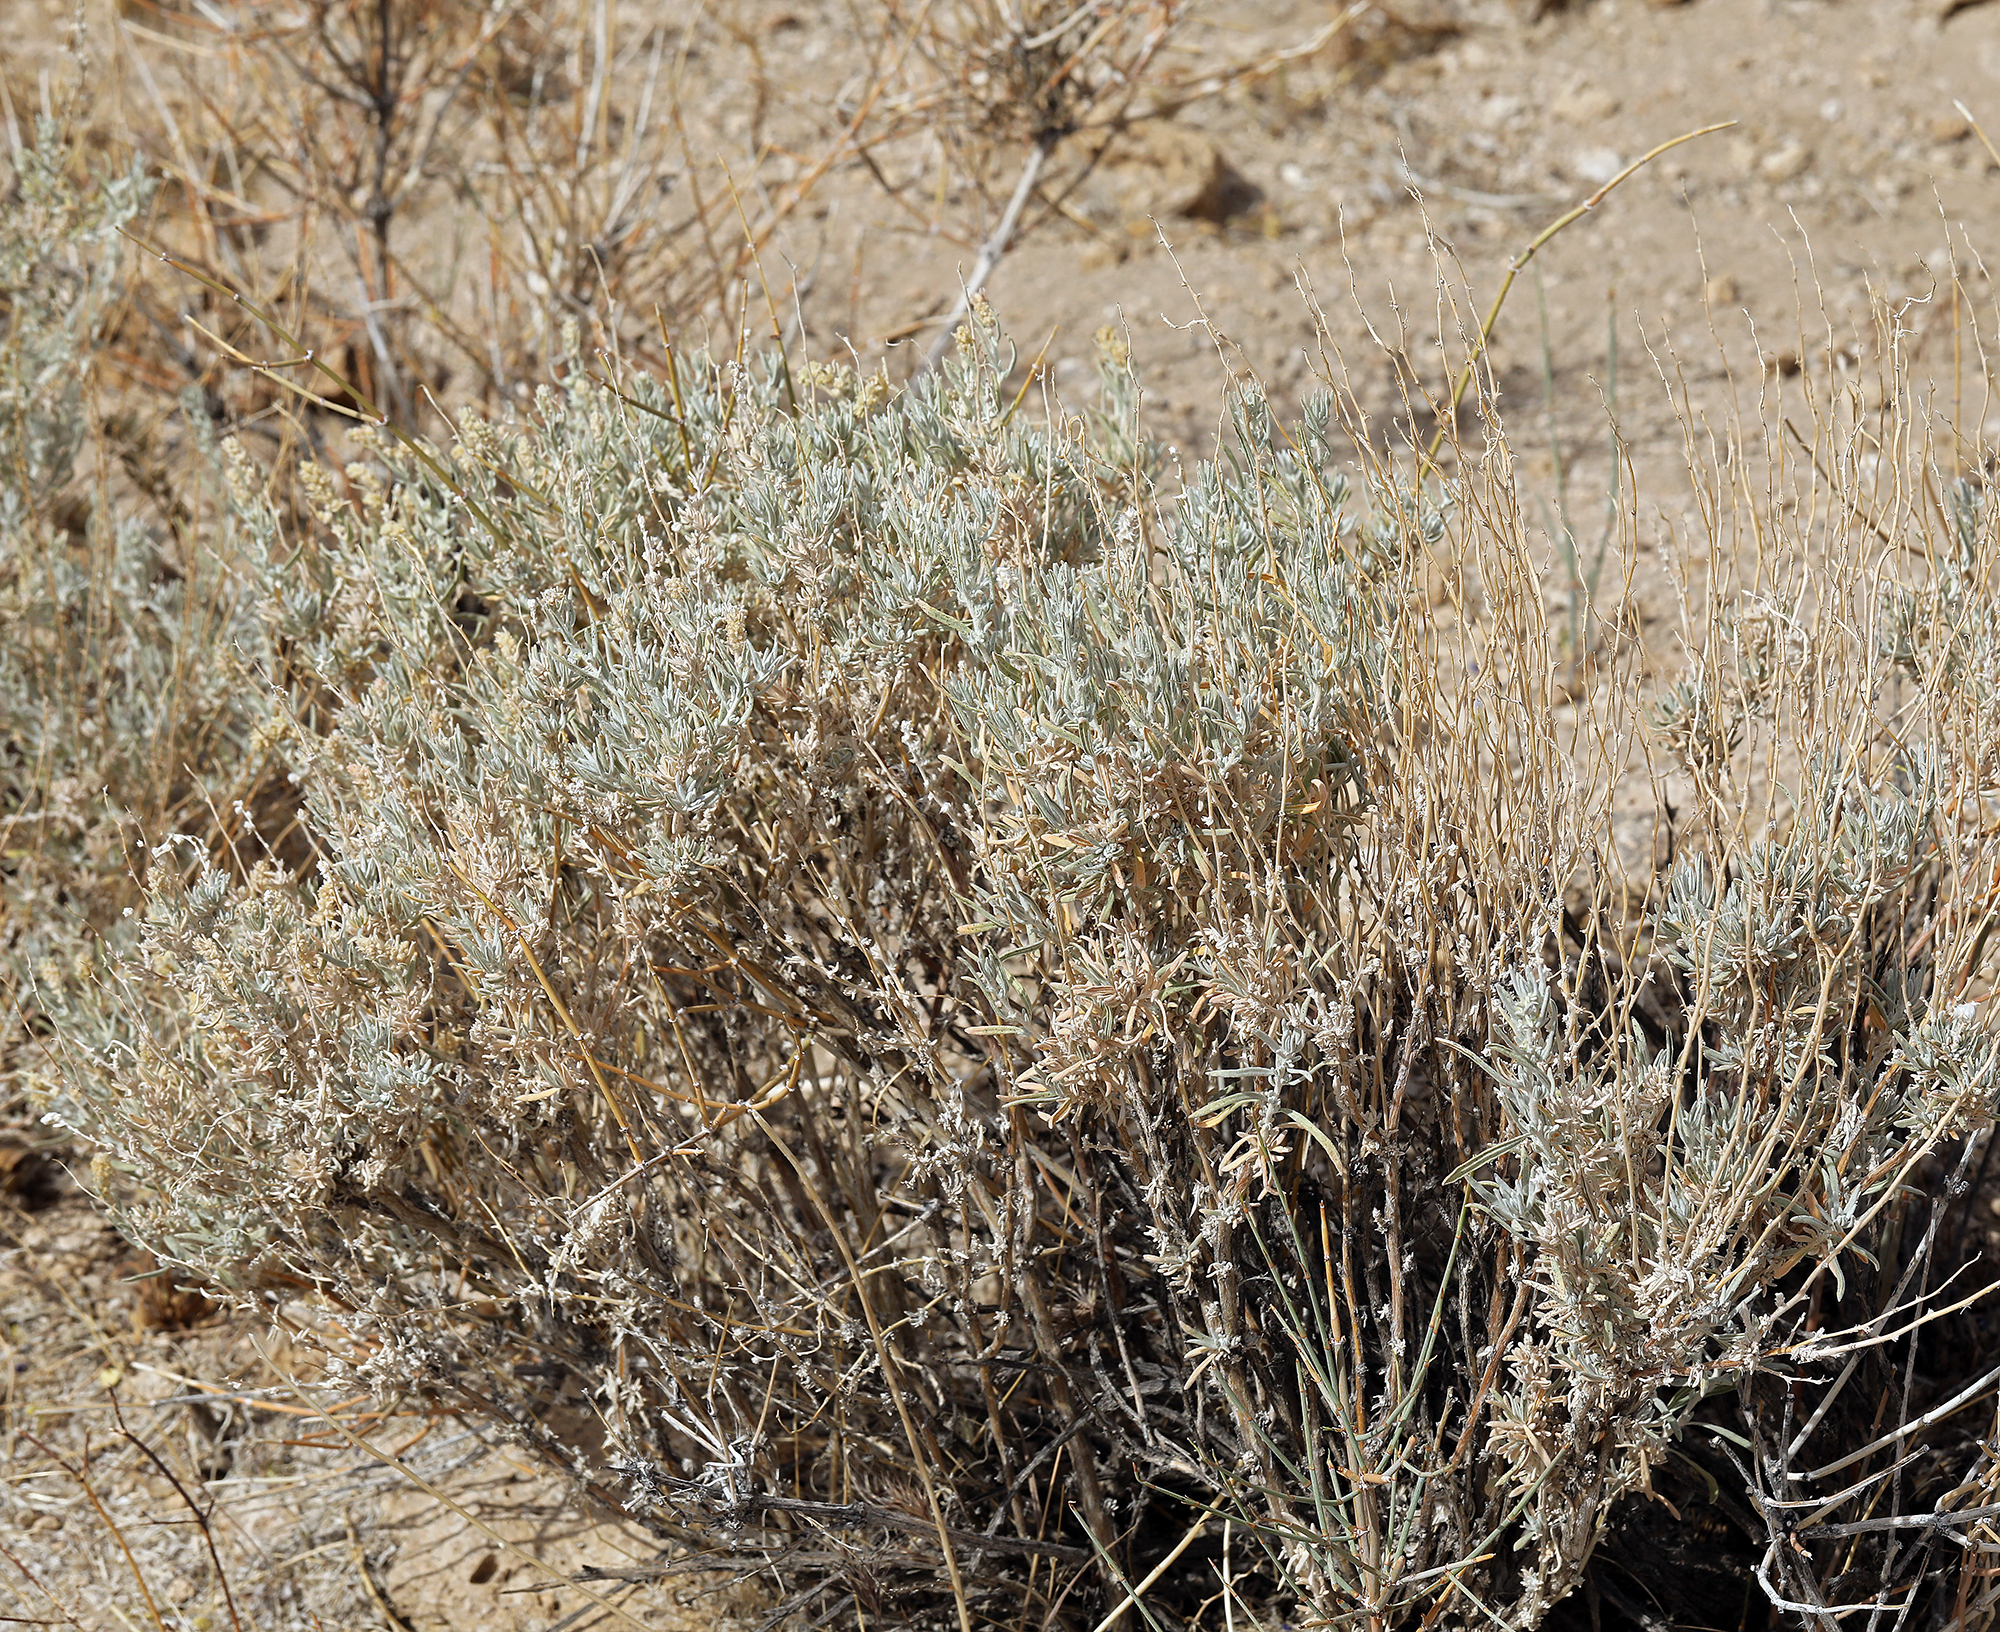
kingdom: Plantae
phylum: Tracheophyta
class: Magnoliopsida
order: Caryophyllales
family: Amaranthaceae
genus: Krascheninnikovia
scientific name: Krascheninnikovia lanata
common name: Winterfat
